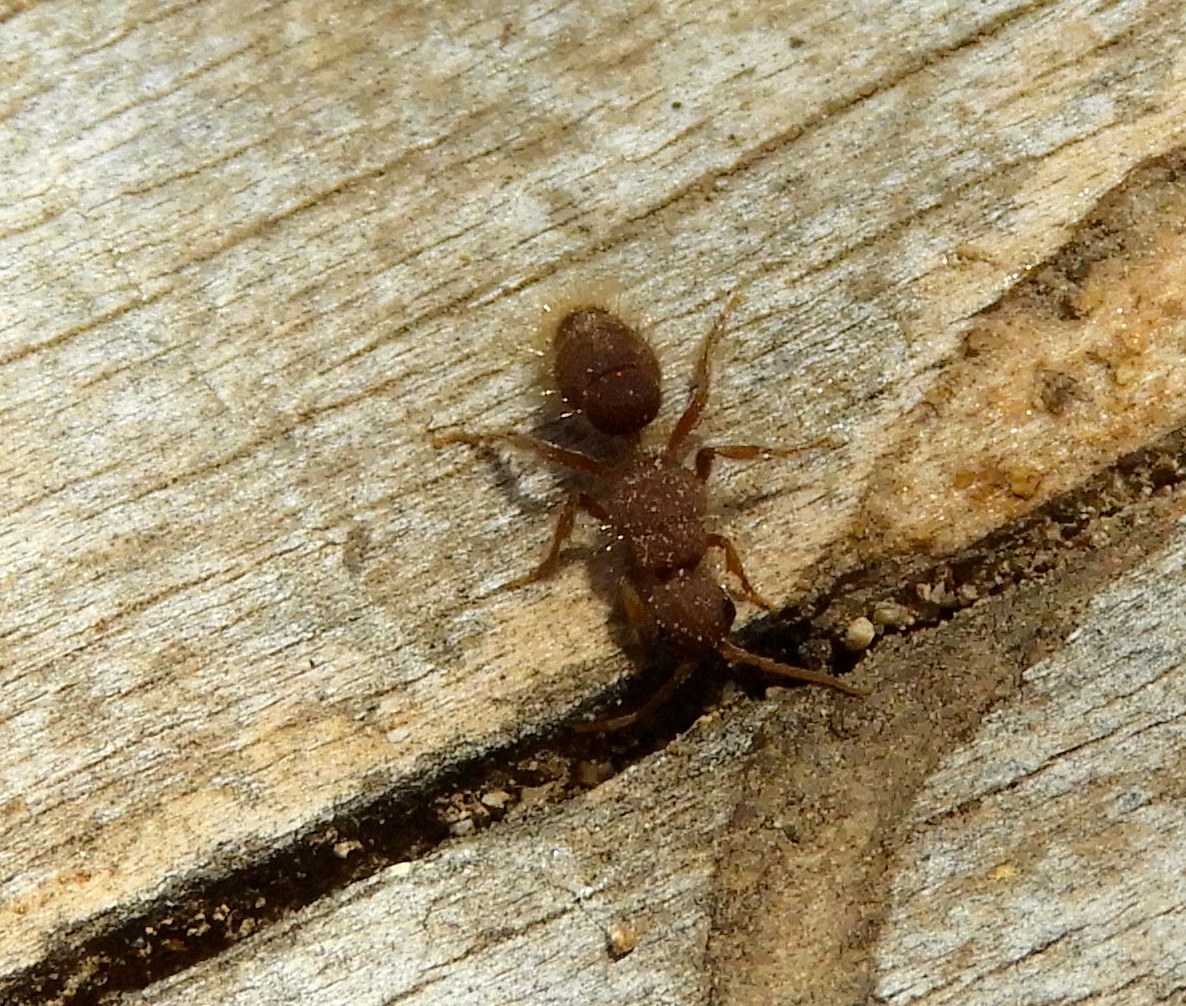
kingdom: Animalia
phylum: Arthropoda
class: Insecta
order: Hymenoptera
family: Chyphotidae
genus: Chyphotes
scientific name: Chyphotes
